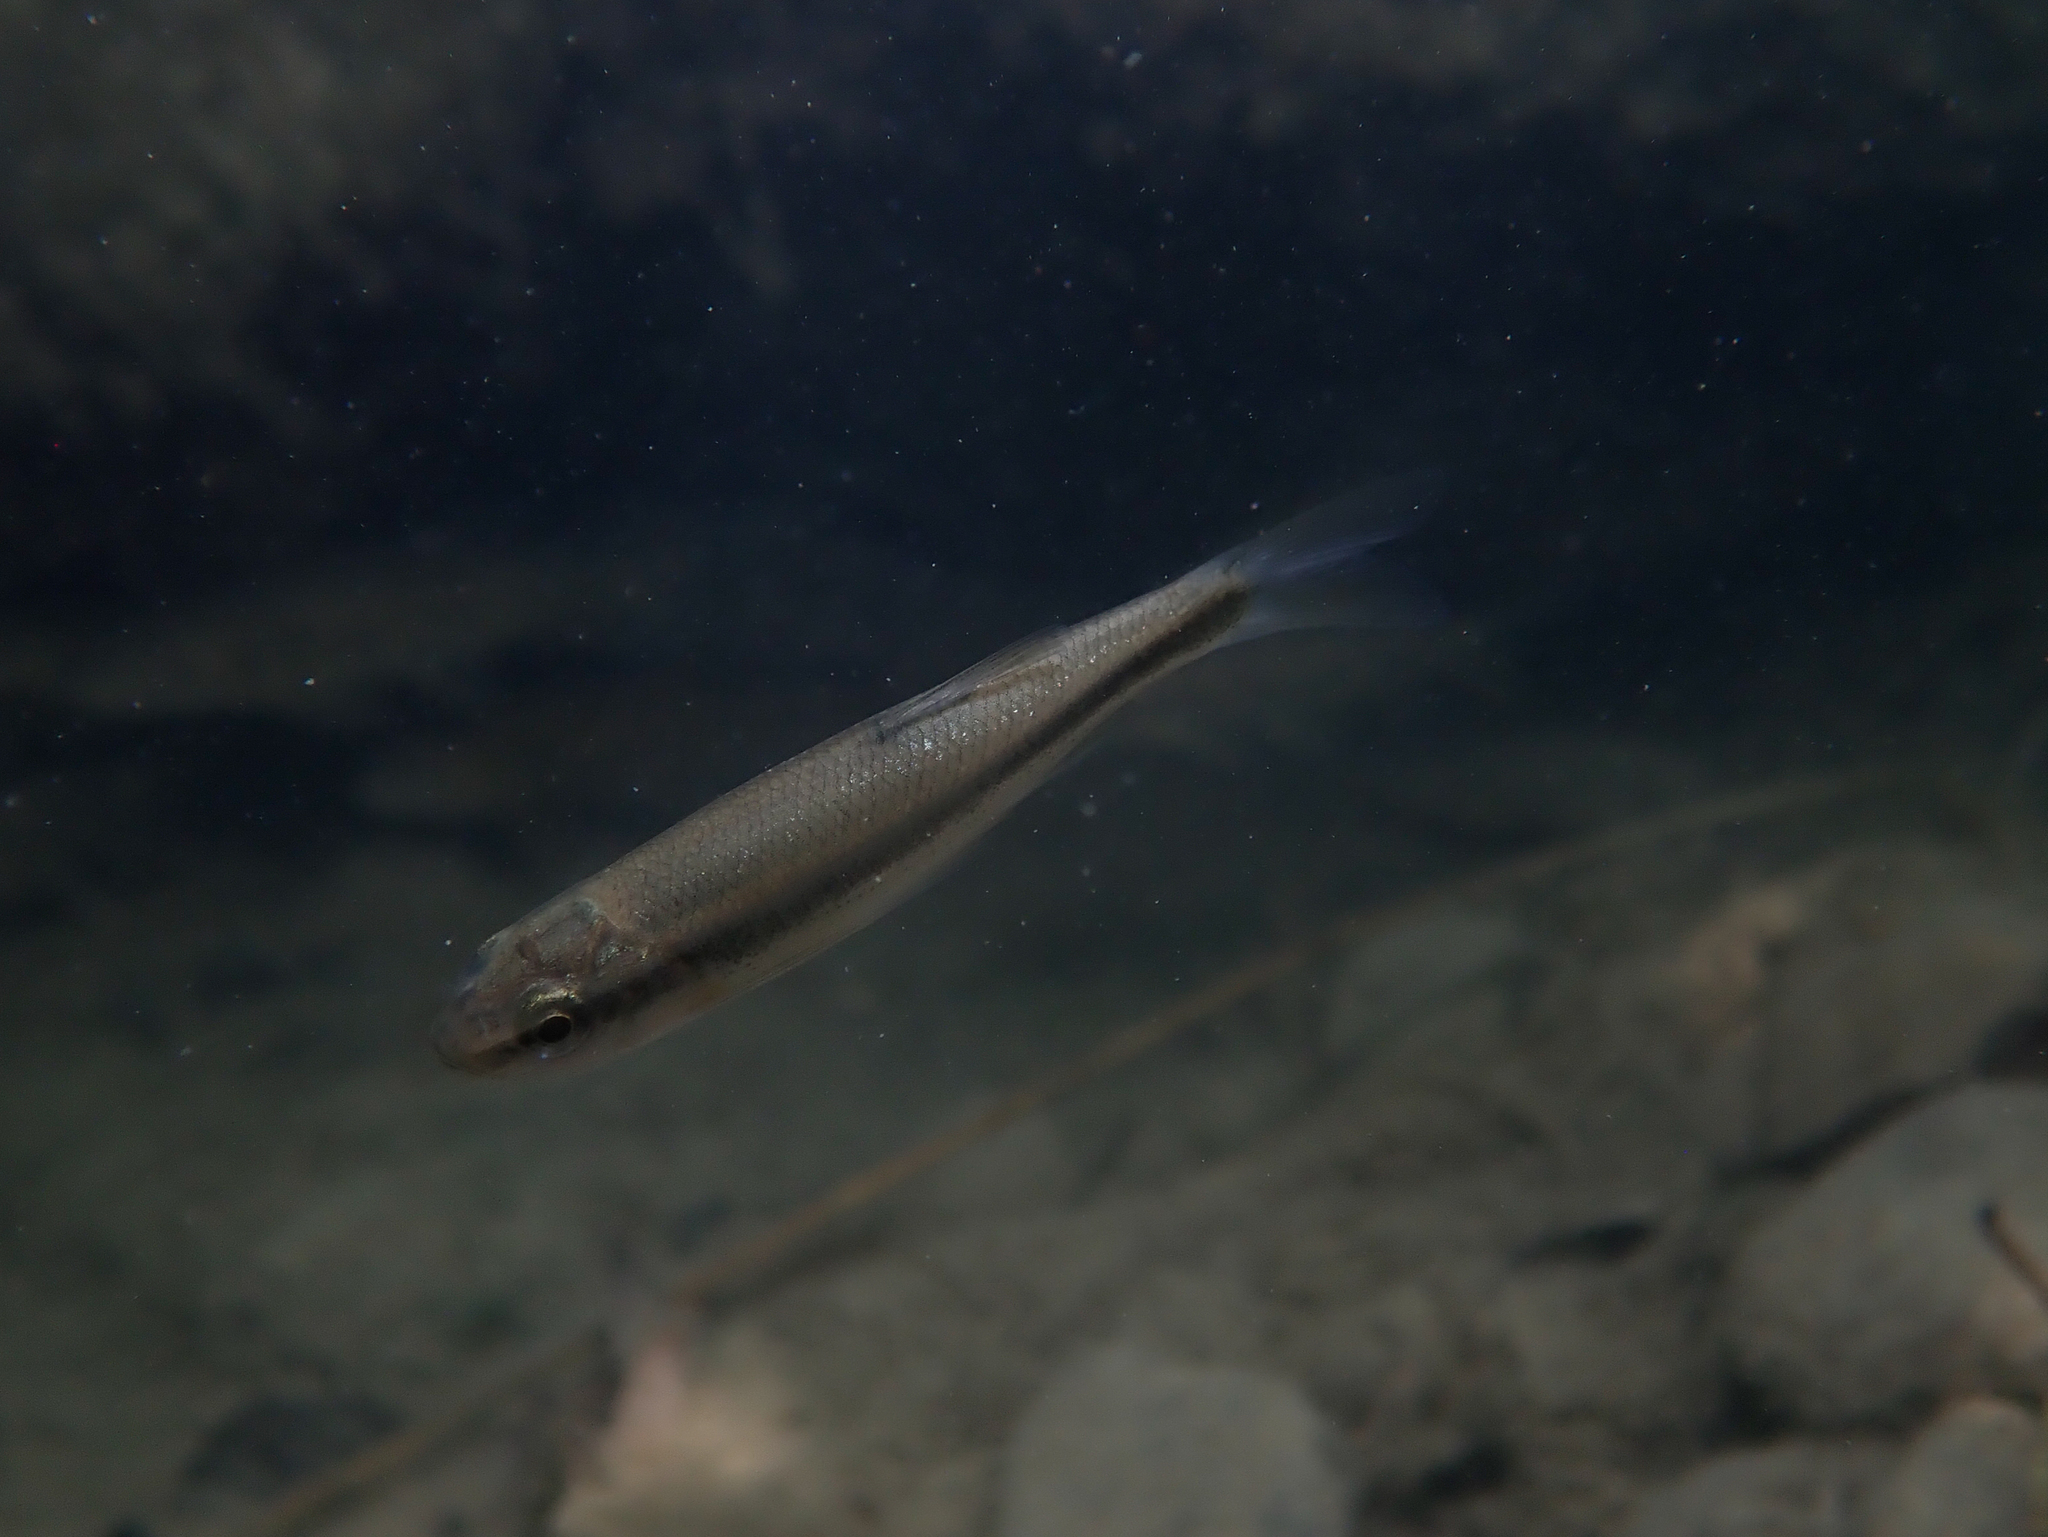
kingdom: Animalia
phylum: Chordata
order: Cypriniformes
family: Cyprinidae
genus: Telestes
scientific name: Telestes muticellus
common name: Italian riffle dace
